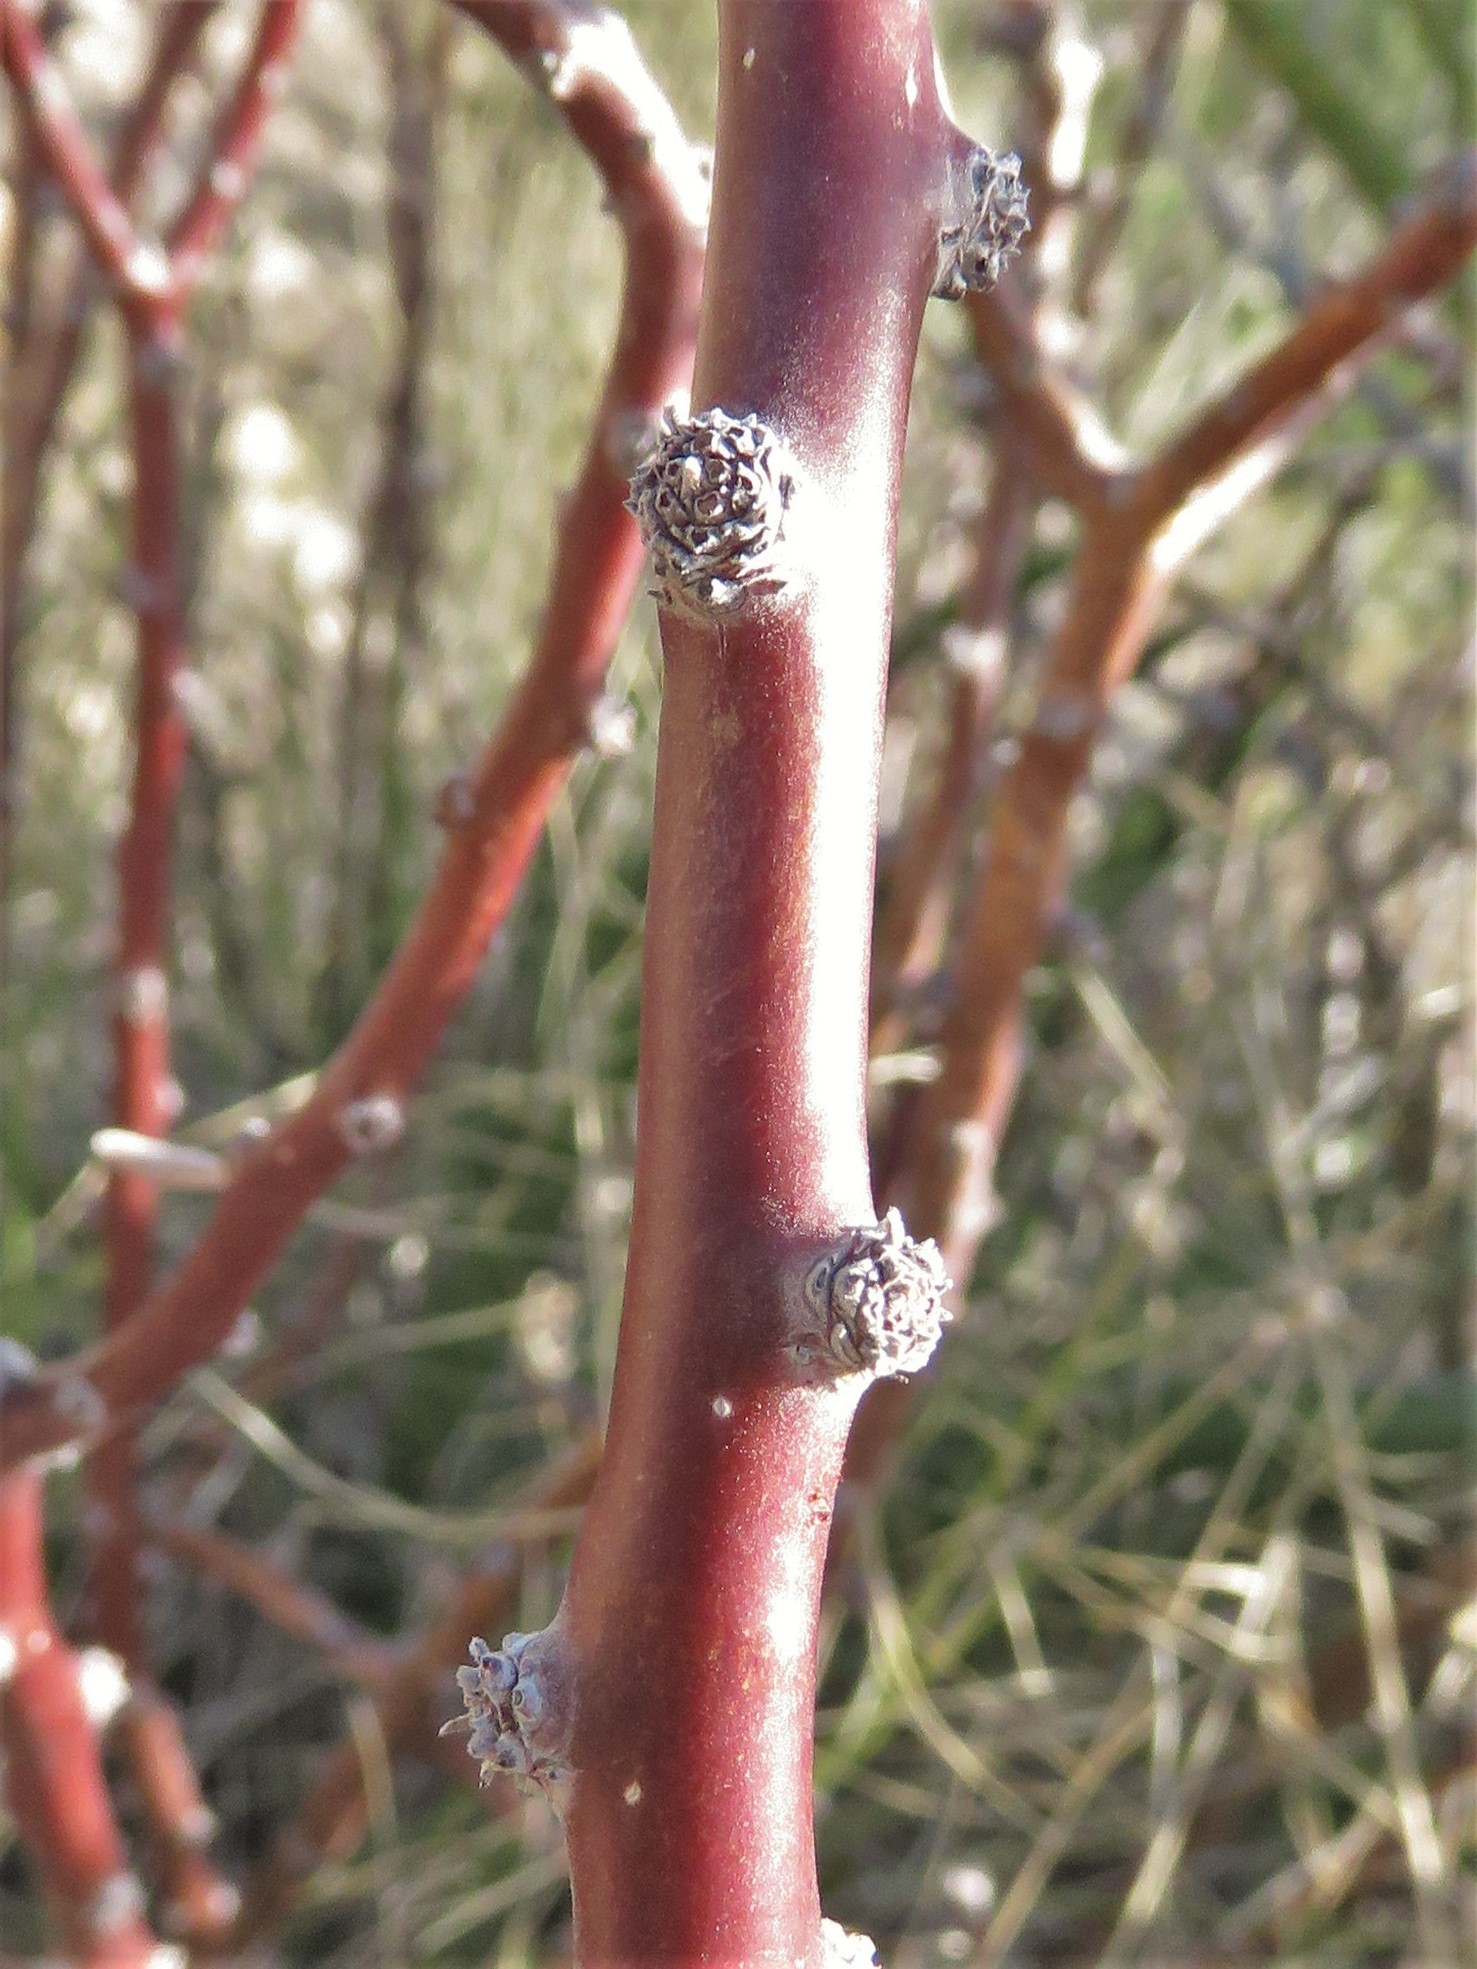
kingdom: Plantae
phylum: Tracheophyta
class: Magnoliopsida
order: Malpighiales
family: Euphorbiaceae
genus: Jatropha
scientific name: Jatropha dioica
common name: Leatherstem
